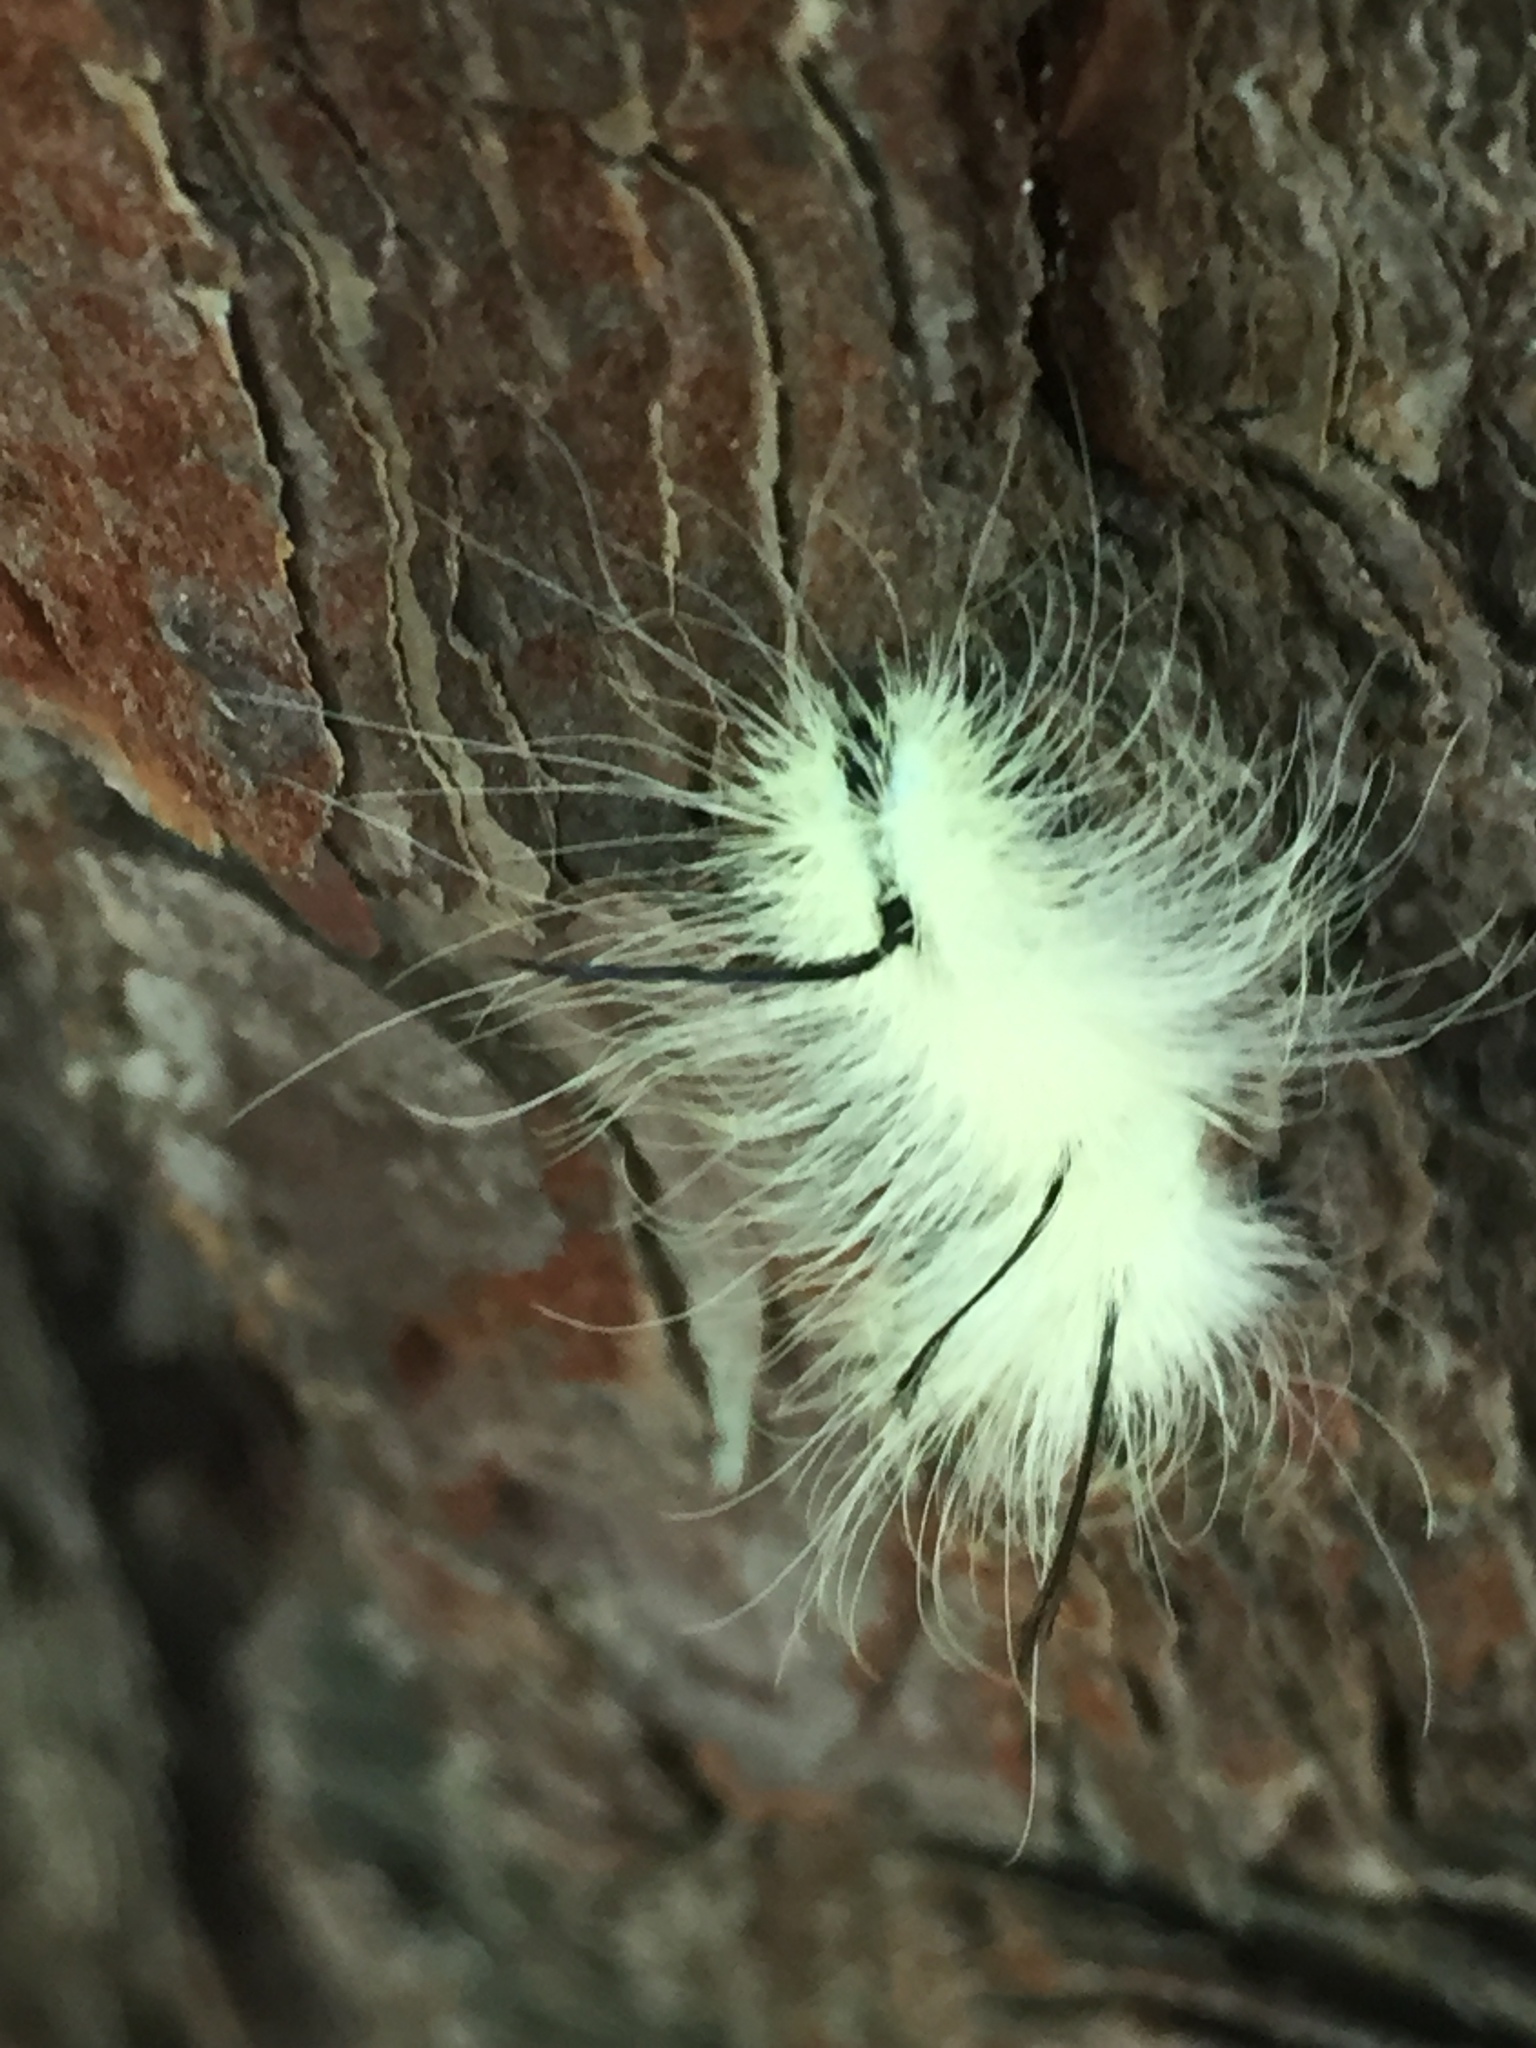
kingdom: Animalia
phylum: Arthropoda
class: Insecta
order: Lepidoptera
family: Noctuidae
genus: Acronicta
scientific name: Acronicta americana
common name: American dagger
